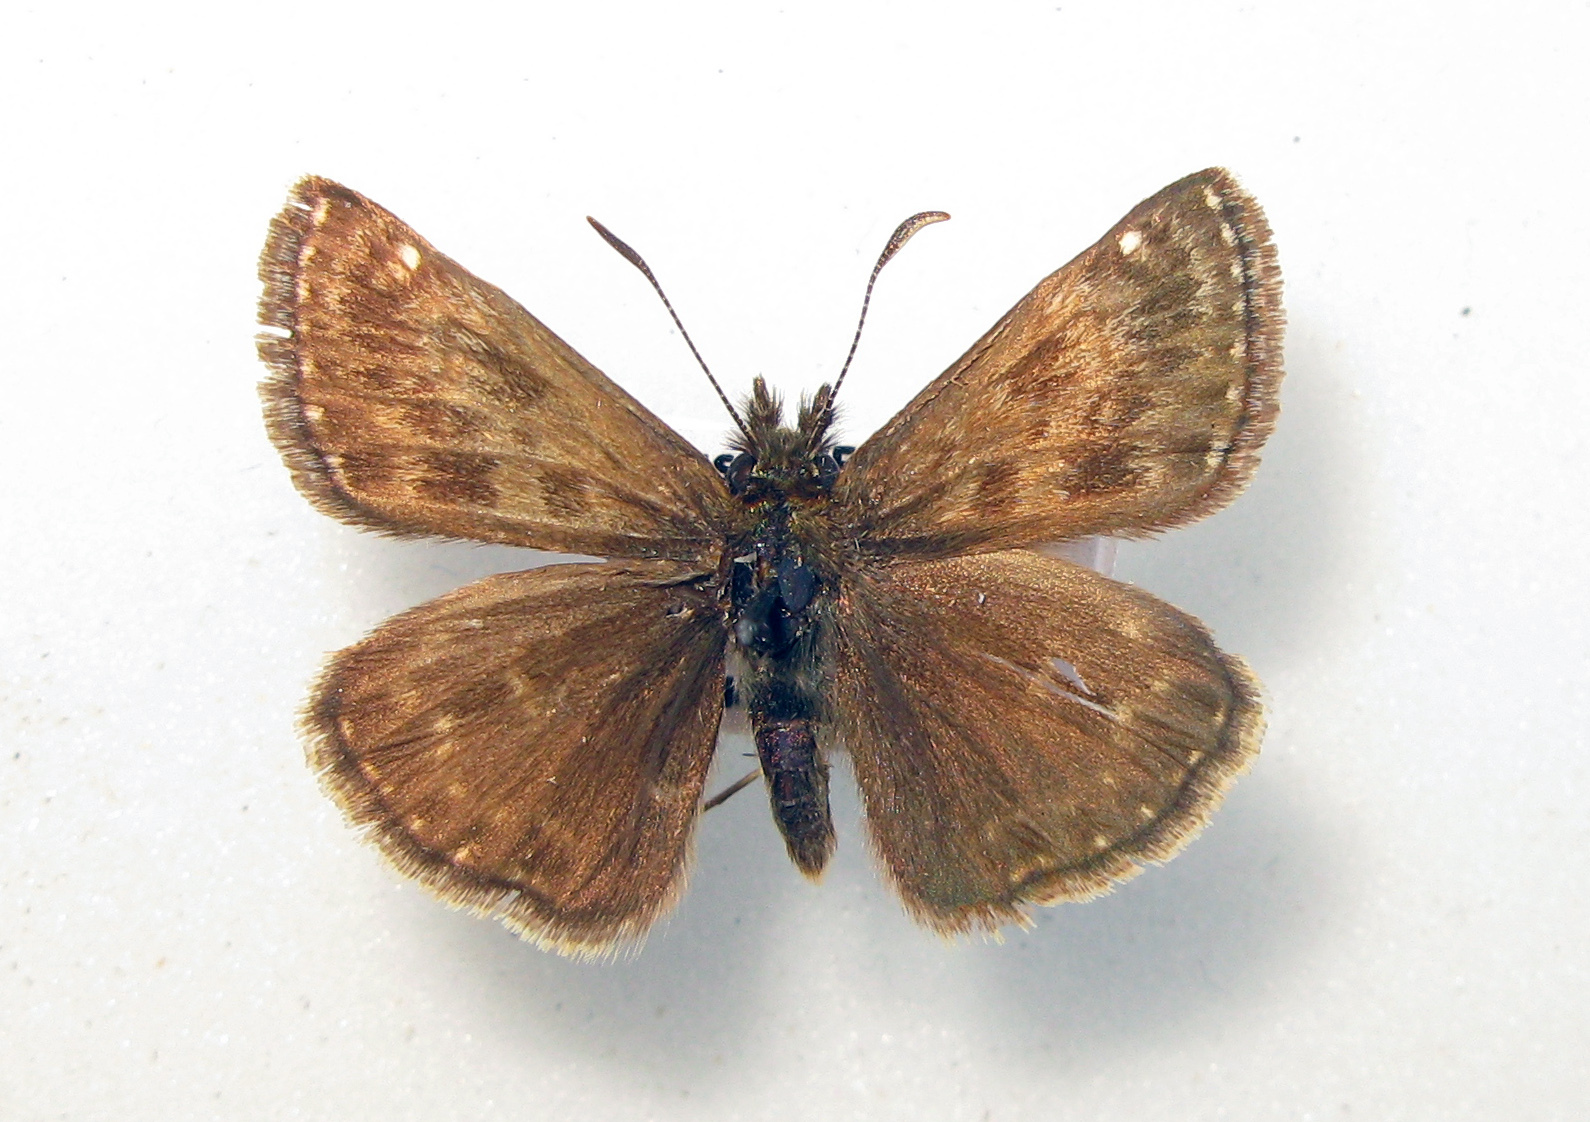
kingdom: Animalia
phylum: Arthropoda
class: Insecta
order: Lepidoptera
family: Hesperiidae
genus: Erynnis
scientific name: Erynnis tages
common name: Dingy skipper
